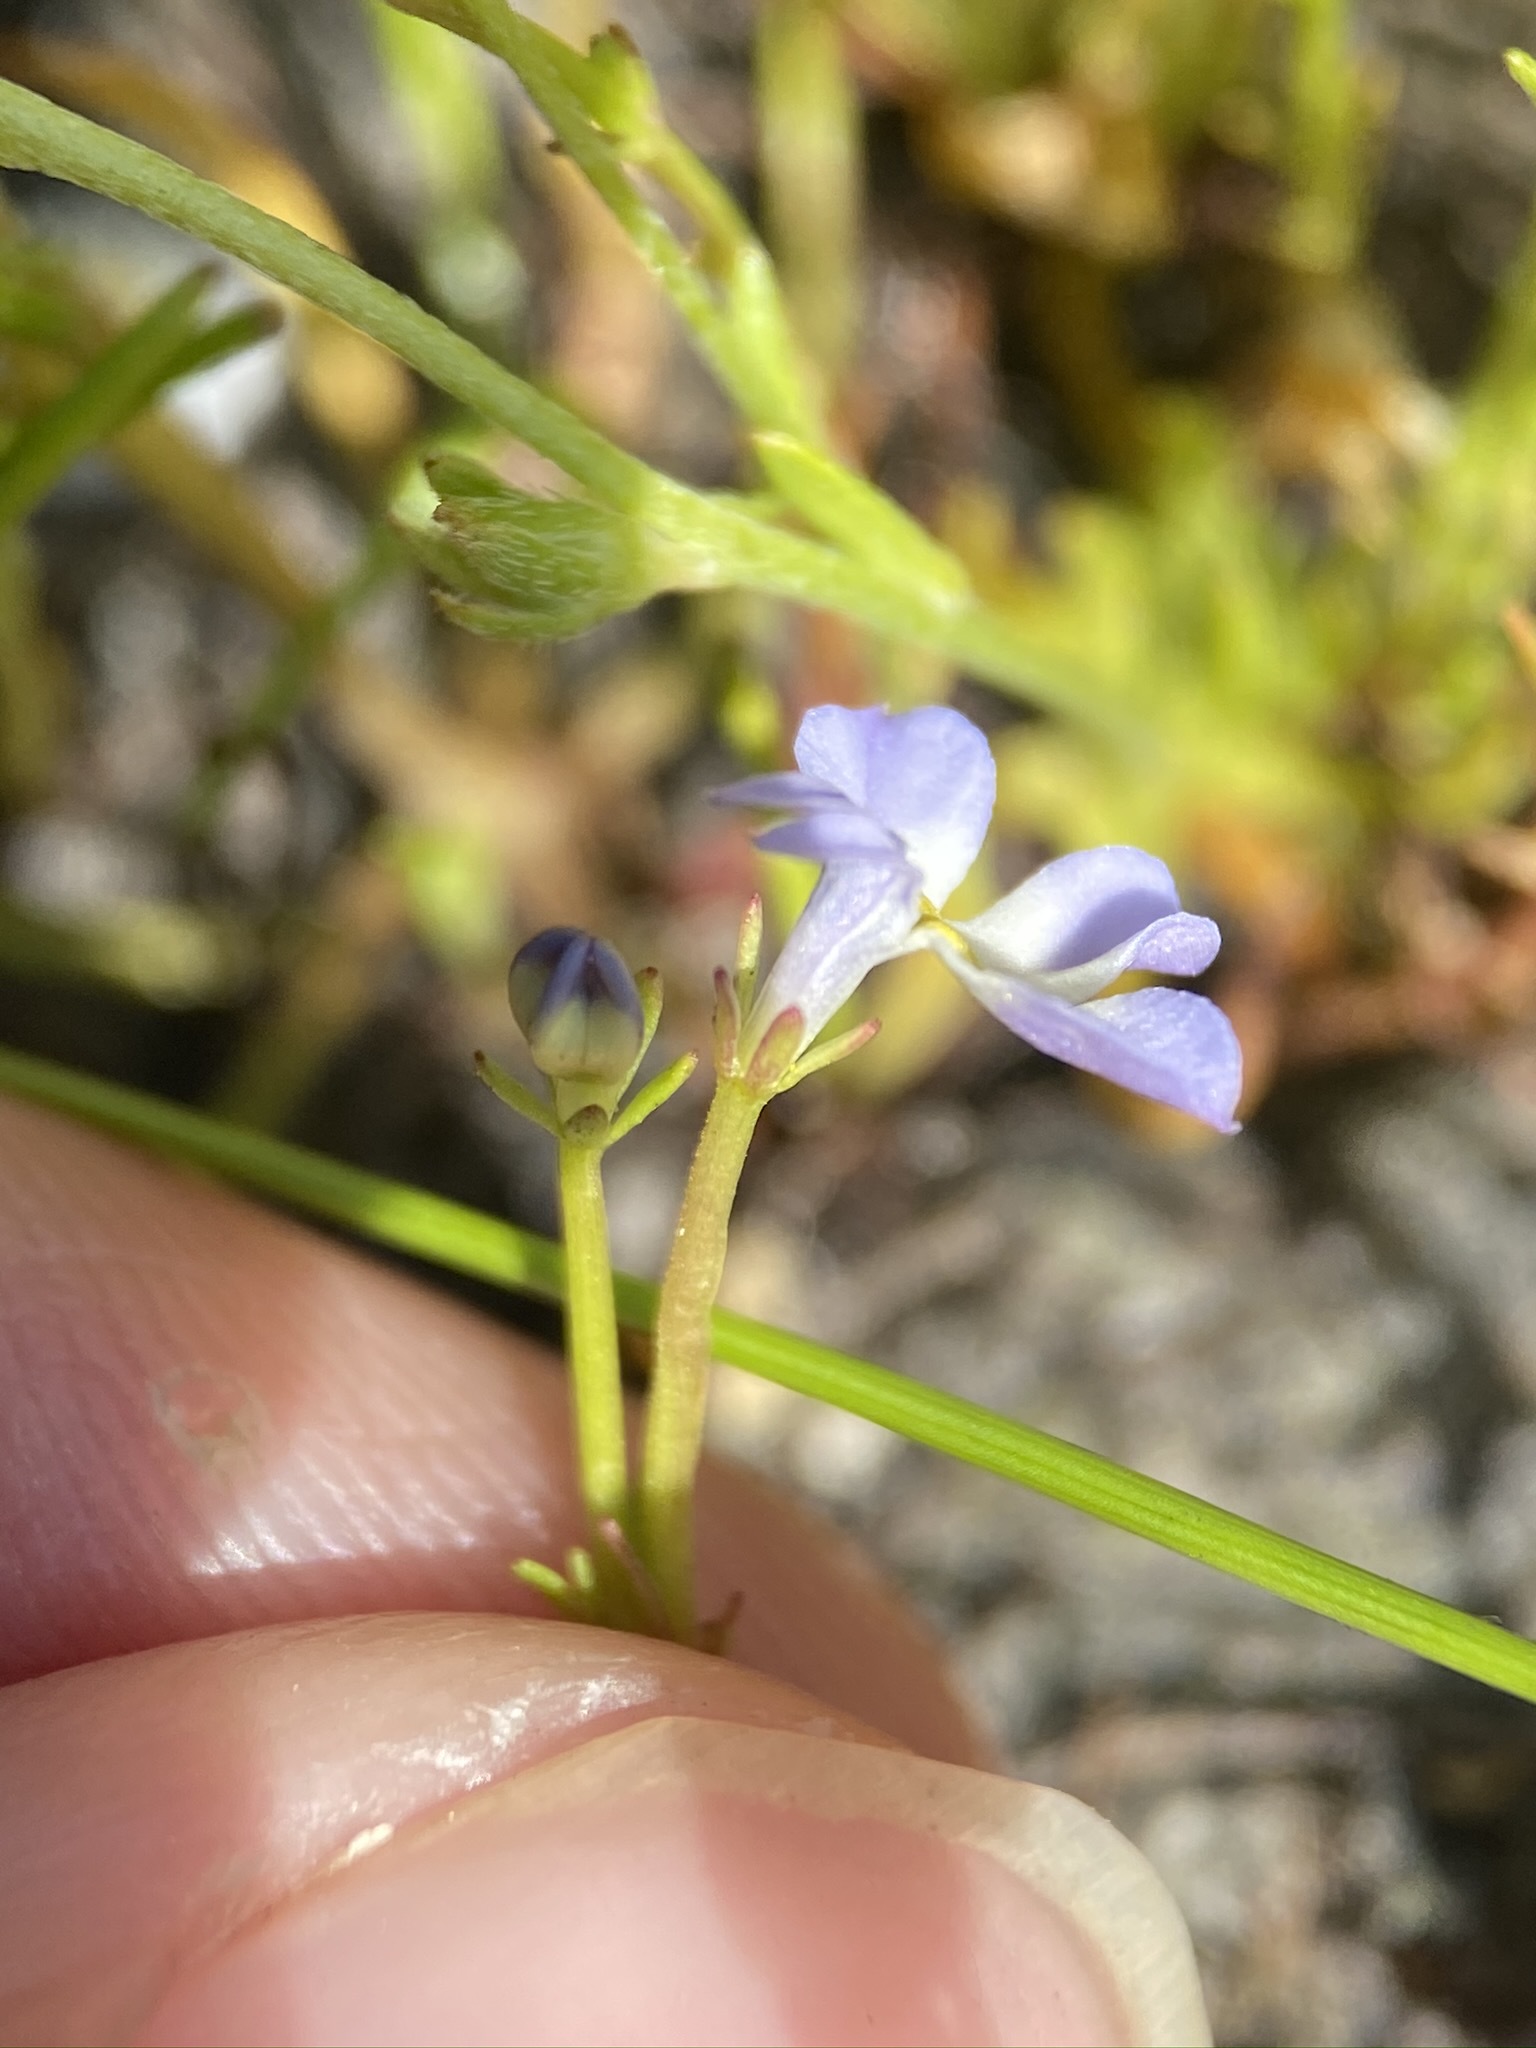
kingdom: Plantae
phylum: Tracheophyta
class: Magnoliopsida
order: Asterales
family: Campanulaceae
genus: Downingia
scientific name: Downingia cuspidata
